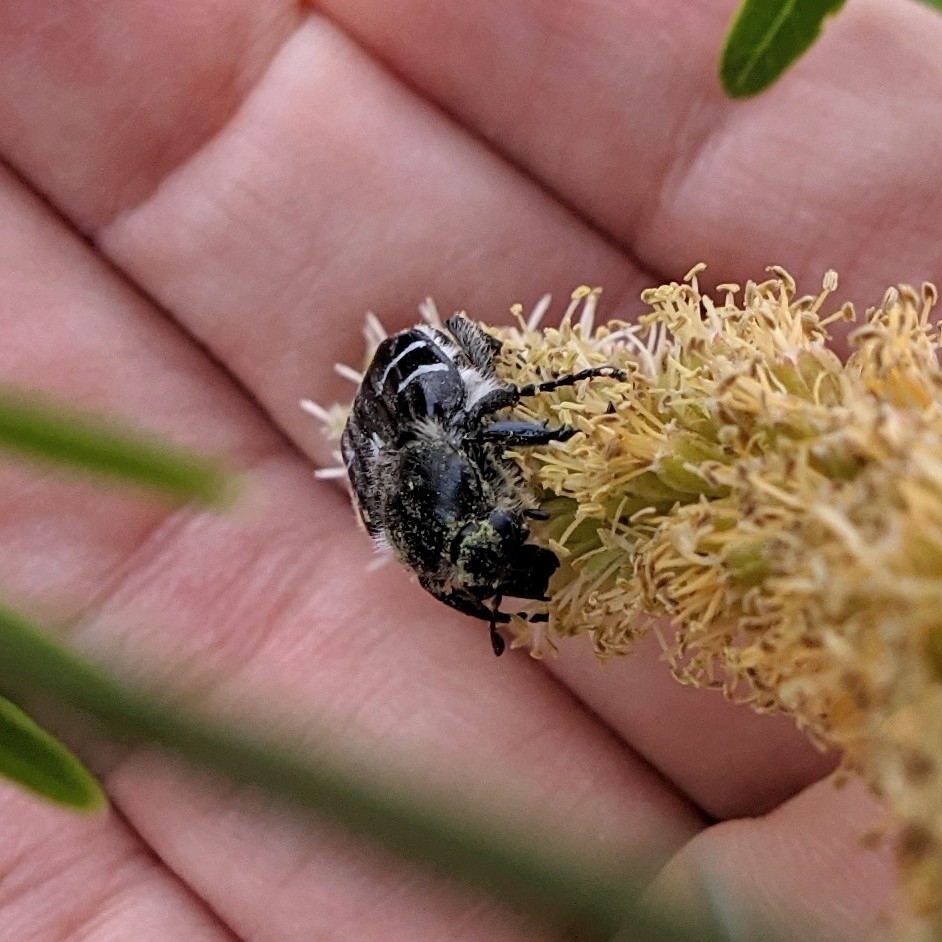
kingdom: Animalia
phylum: Arthropoda
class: Insecta
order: Coleoptera
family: Scarabaeidae
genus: Trichiotinus
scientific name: Trichiotinus texanus
